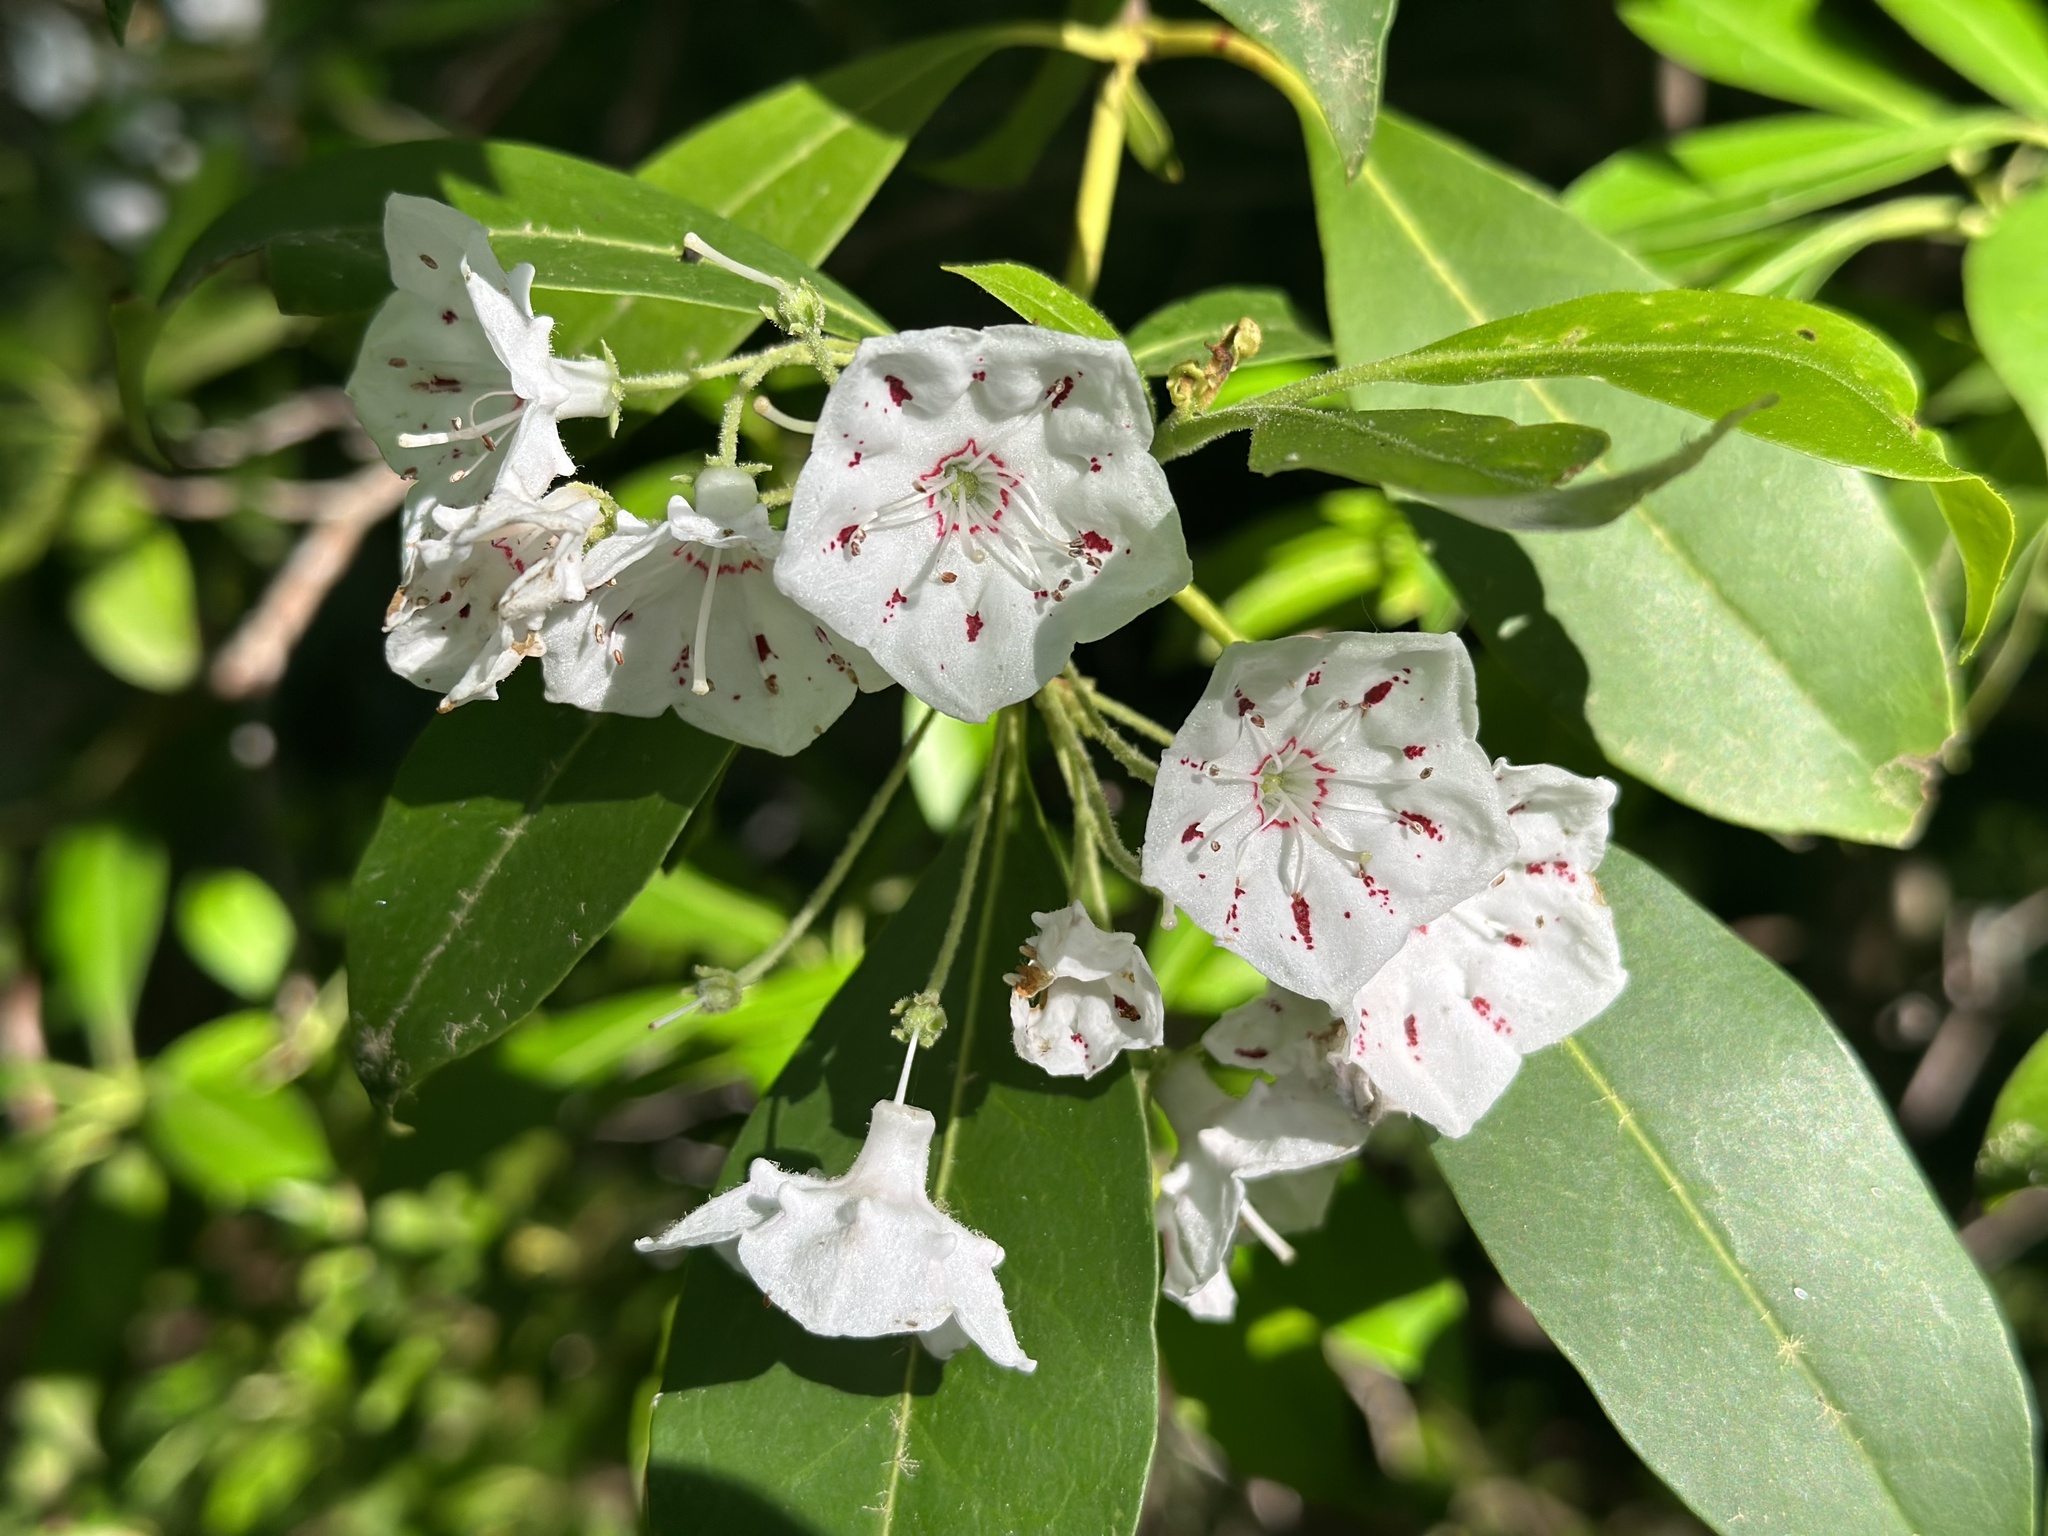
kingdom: Plantae
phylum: Tracheophyta
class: Magnoliopsida
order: Ericales
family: Ericaceae
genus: Kalmia
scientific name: Kalmia latifolia
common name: Mountain-laurel
